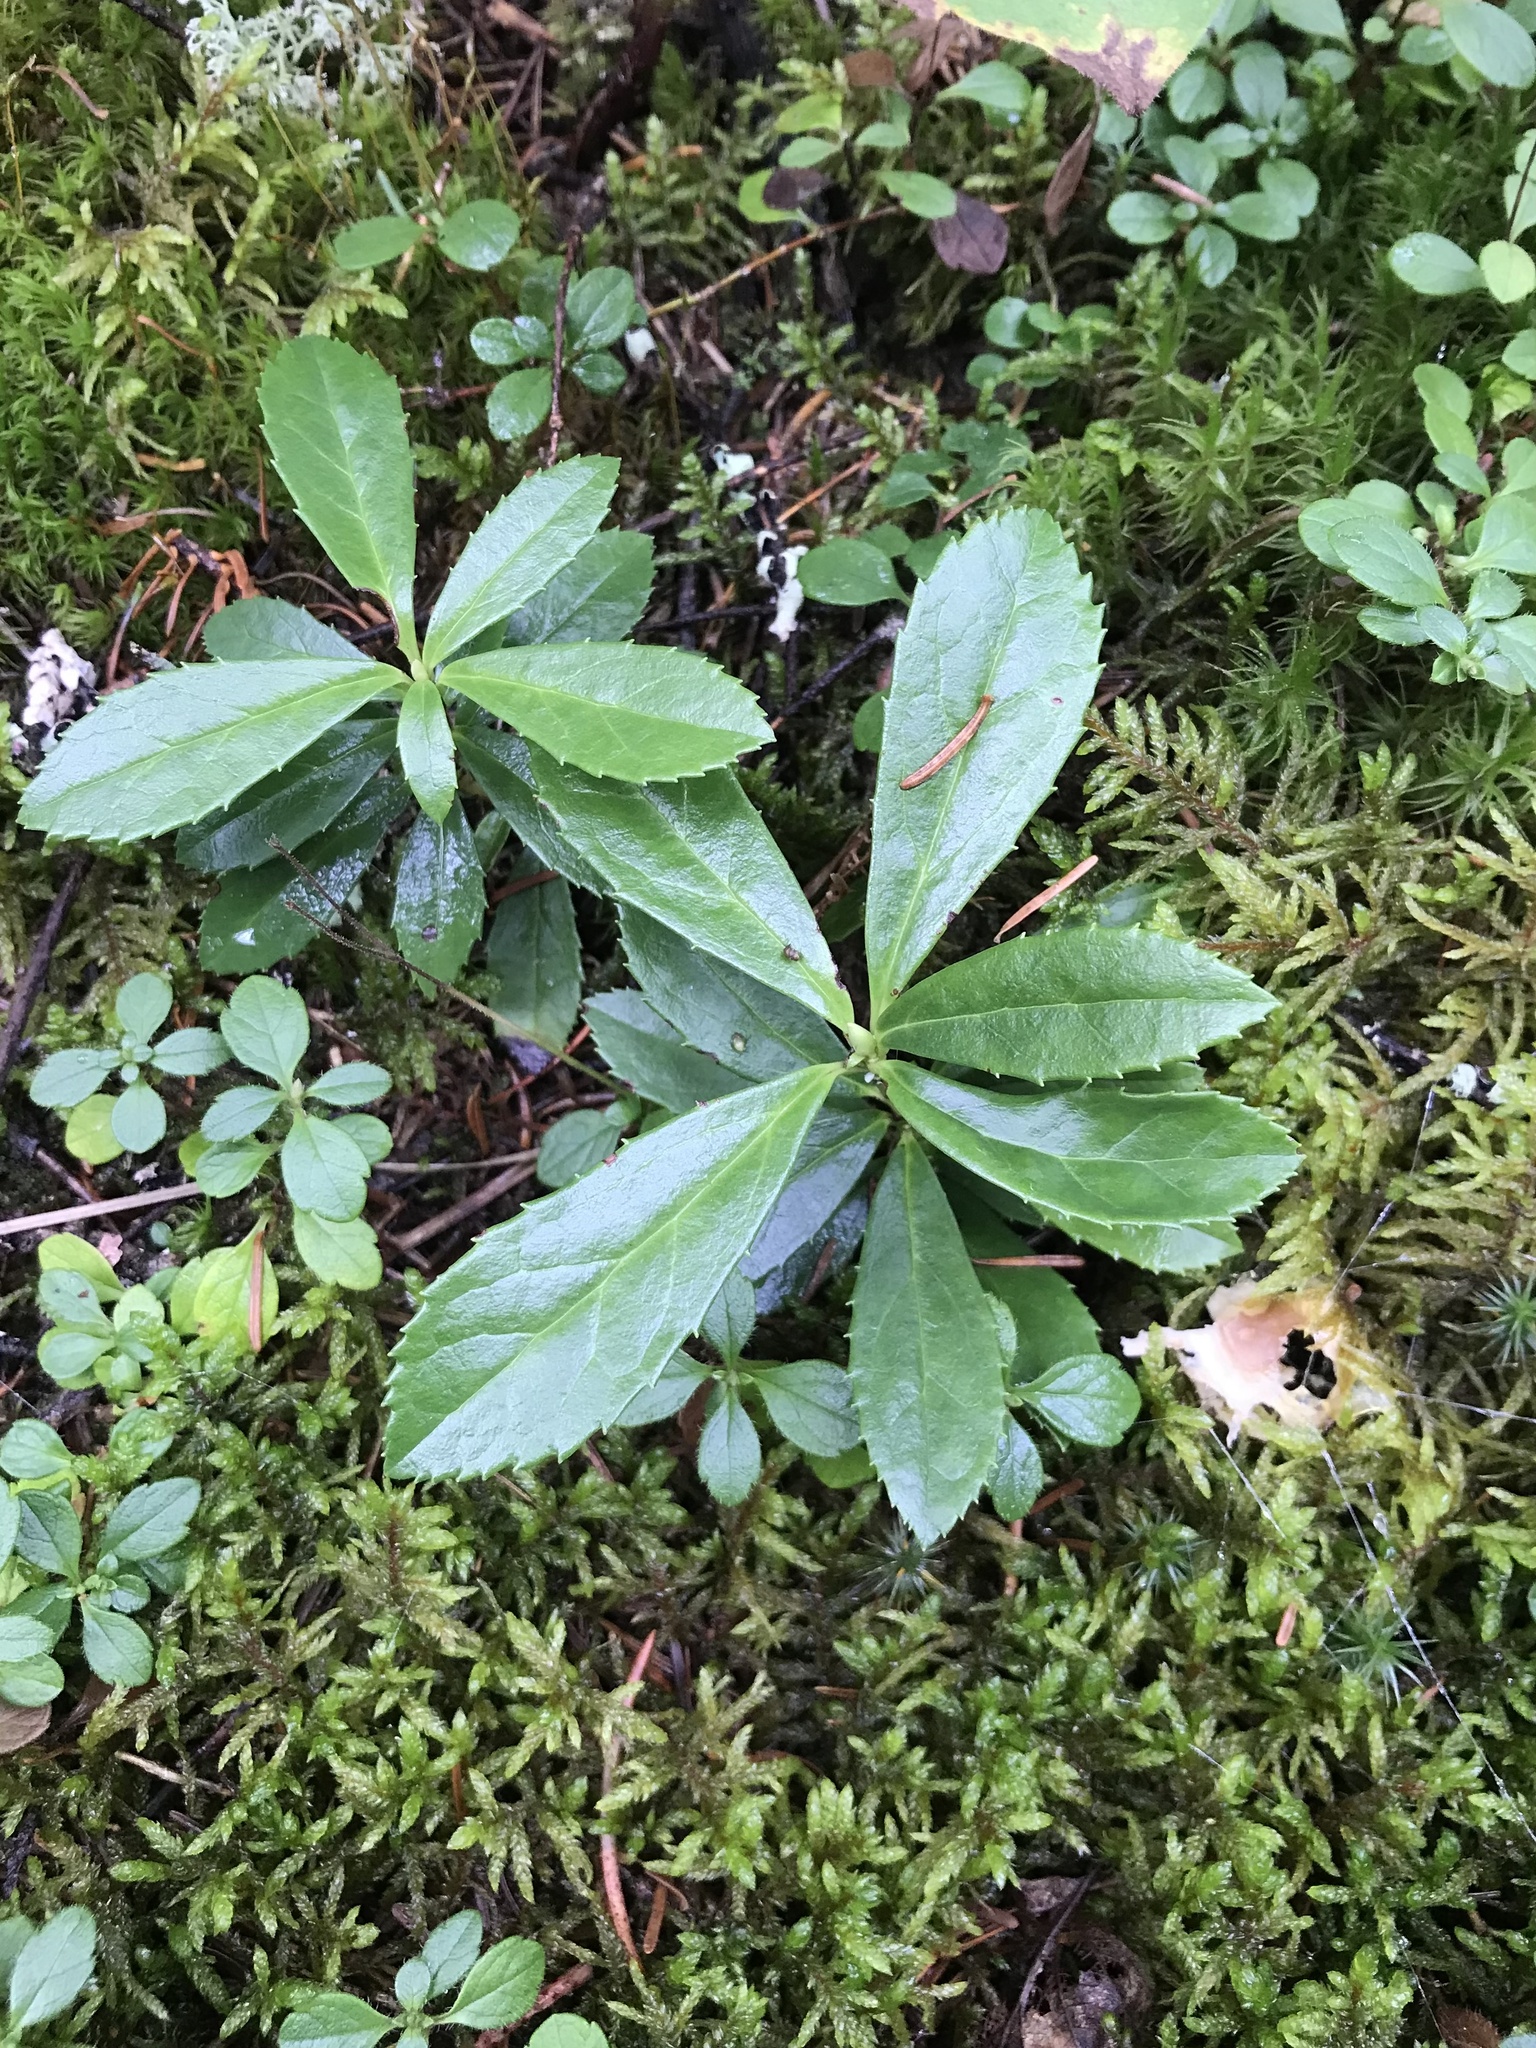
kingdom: Plantae
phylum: Tracheophyta
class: Magnoliopsida
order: Ericales
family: Ericaceae
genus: Chimaphila
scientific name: Chimaphila umbellata
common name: Pipsissewa
